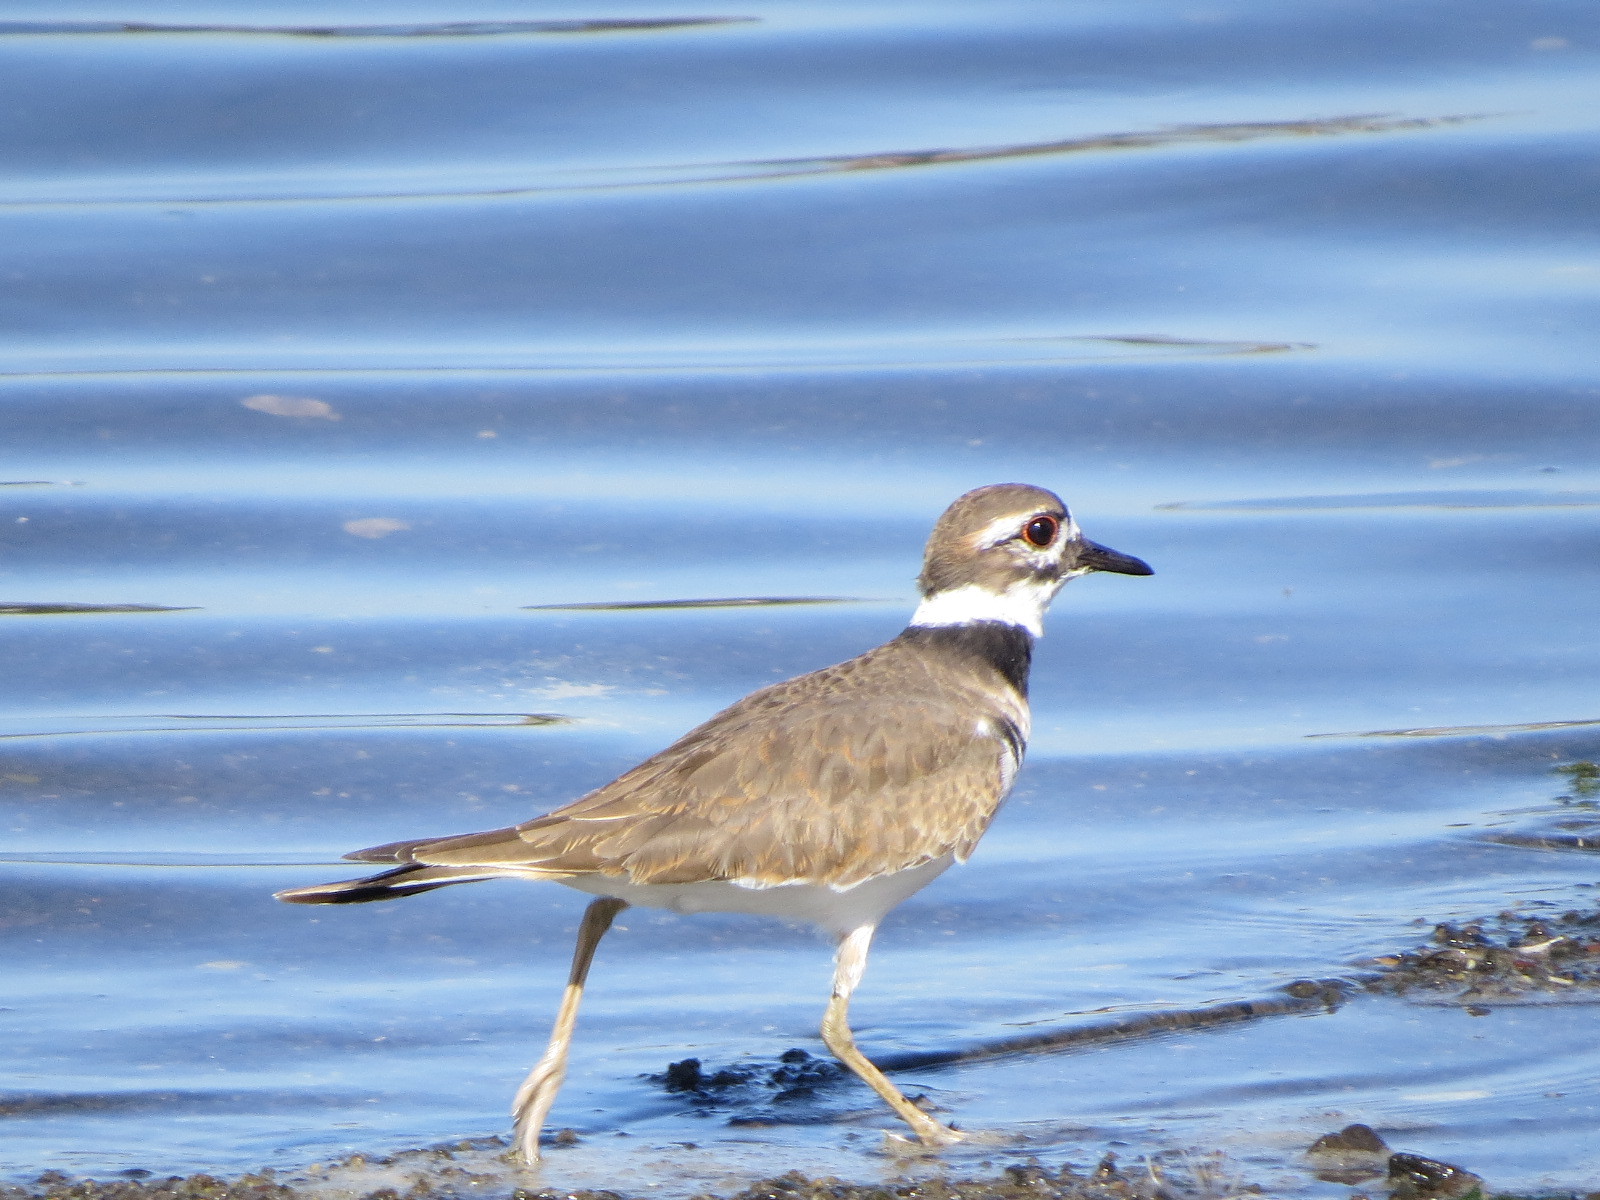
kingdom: Animalia
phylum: Chordata
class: Aves
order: Charadriiformes
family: Charadriidae
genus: Charadrius
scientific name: Charadrius vociferus
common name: Killdeer
